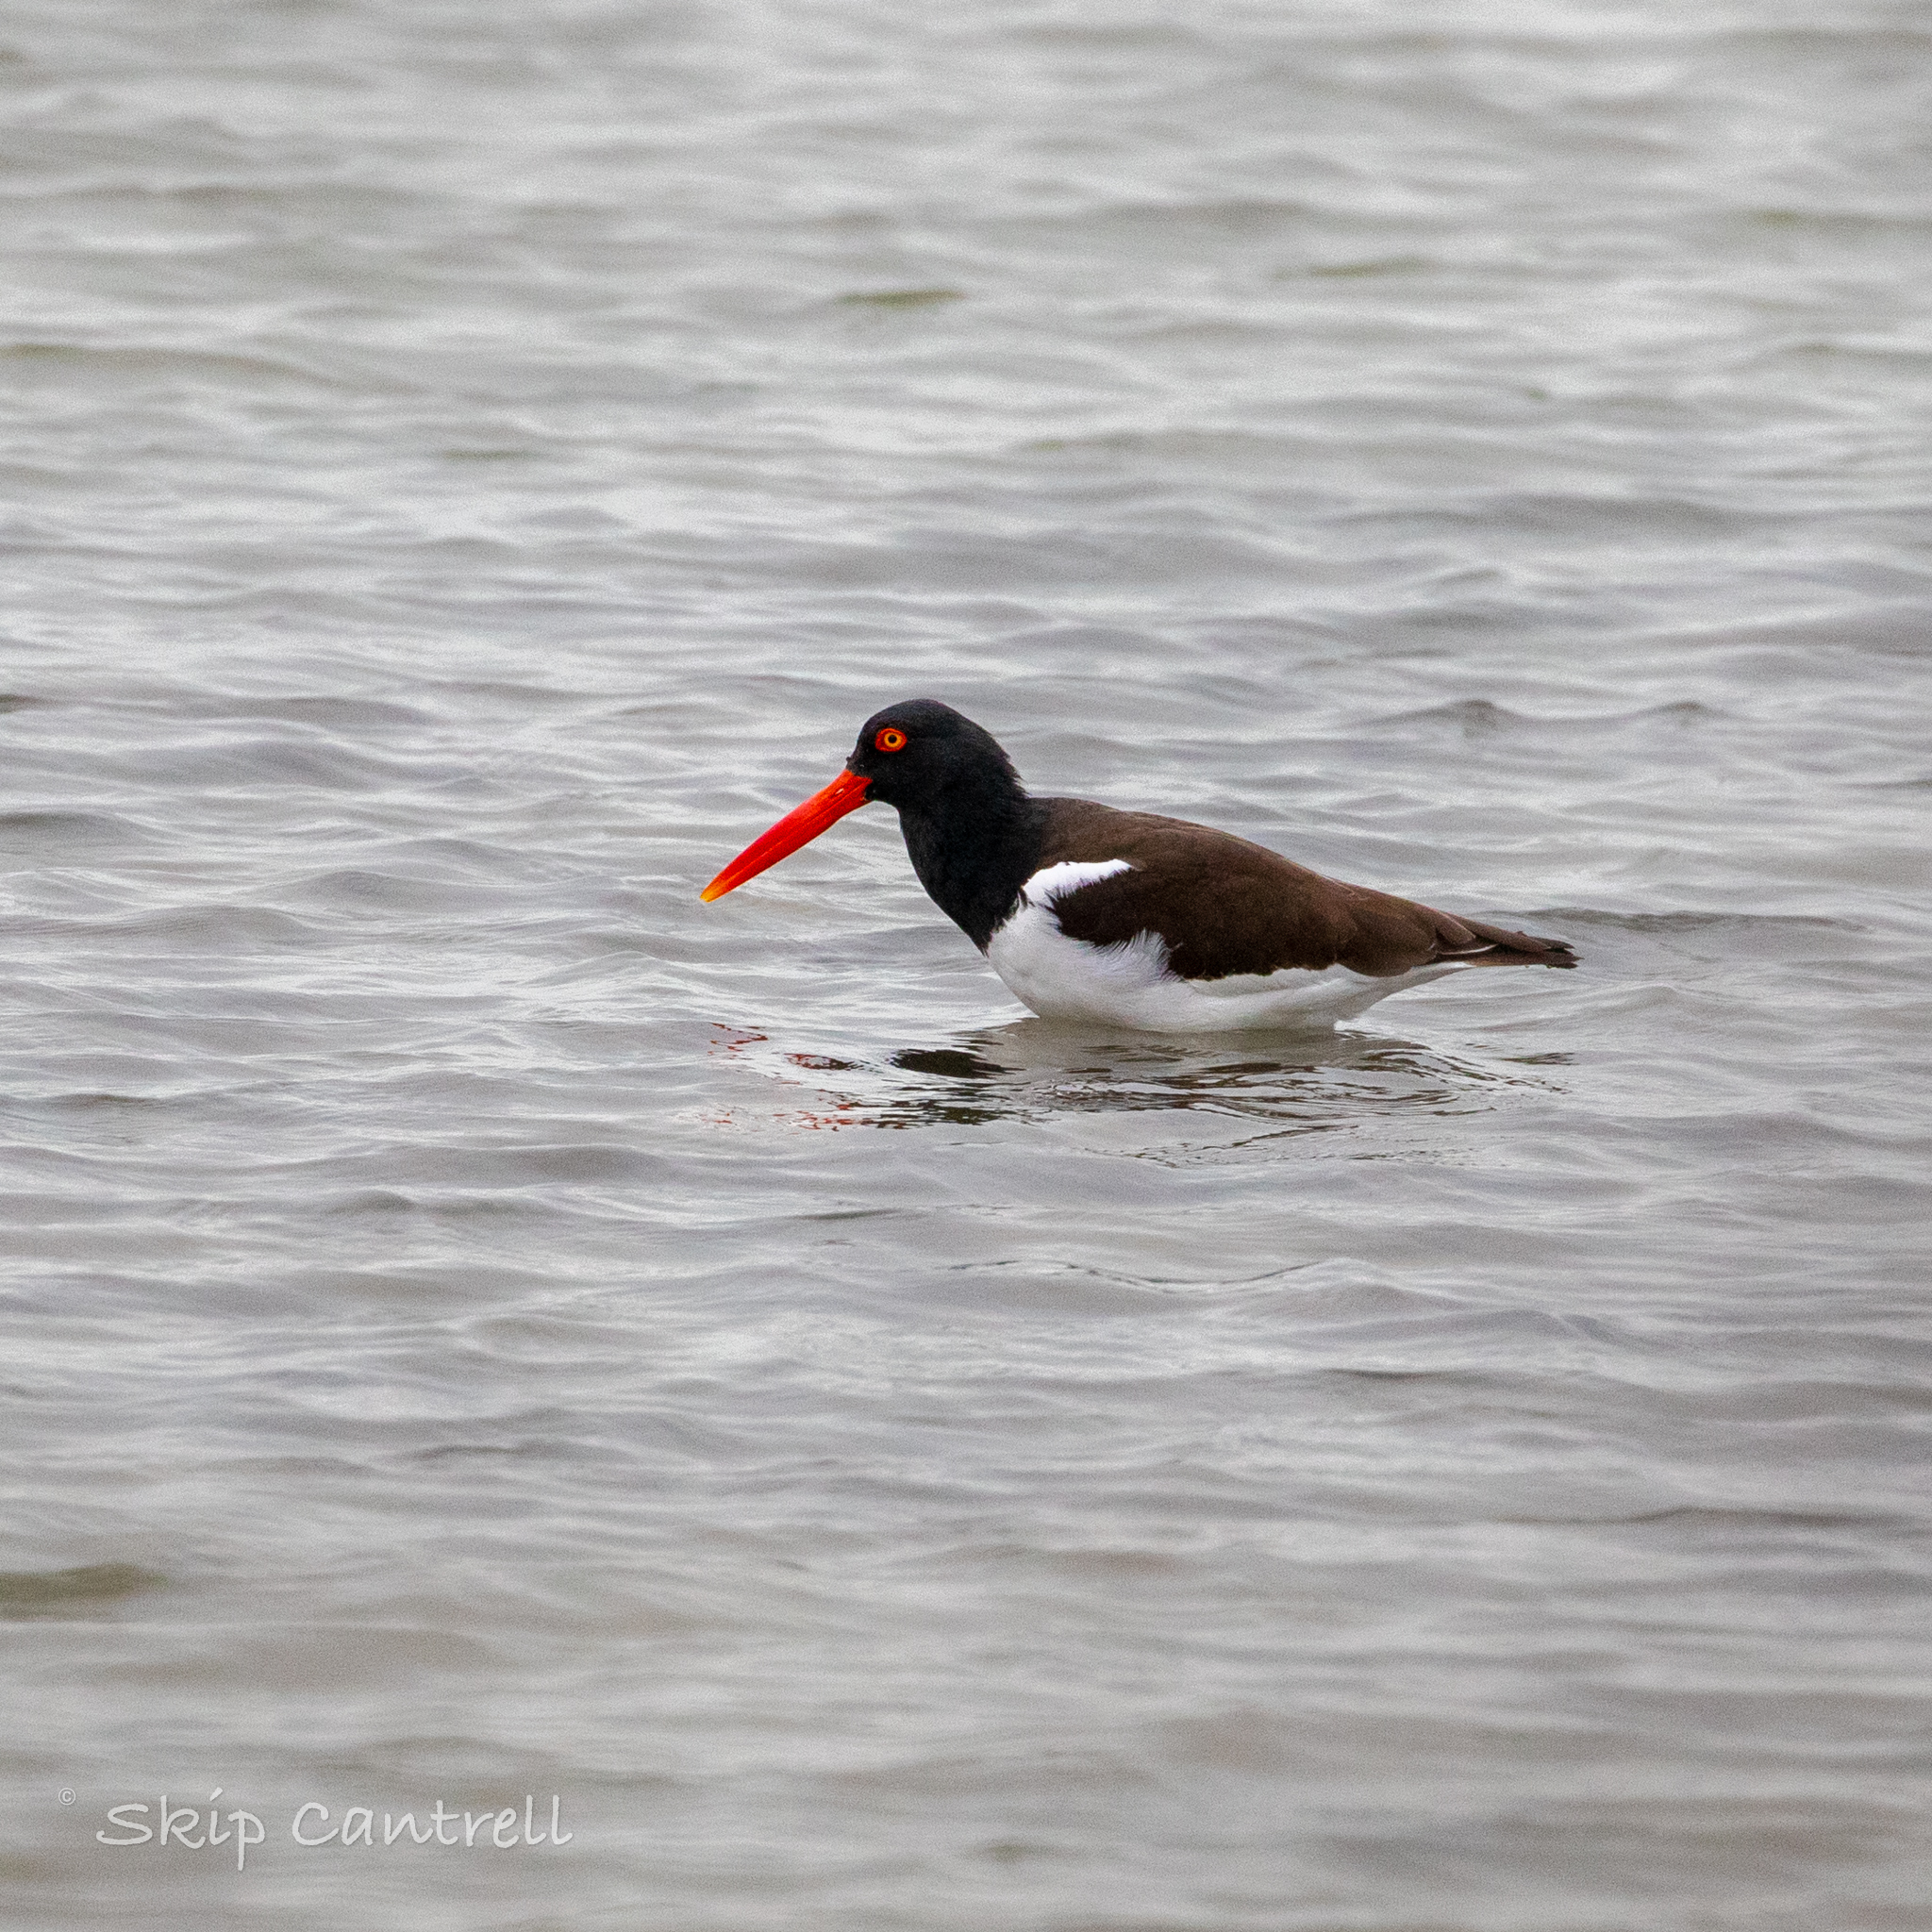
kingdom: Animalia
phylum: Chordata
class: Aves
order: Charadriiformes
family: Haematopodidae
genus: Haematopus
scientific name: Haematopus palliatus
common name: American oystercatcher
